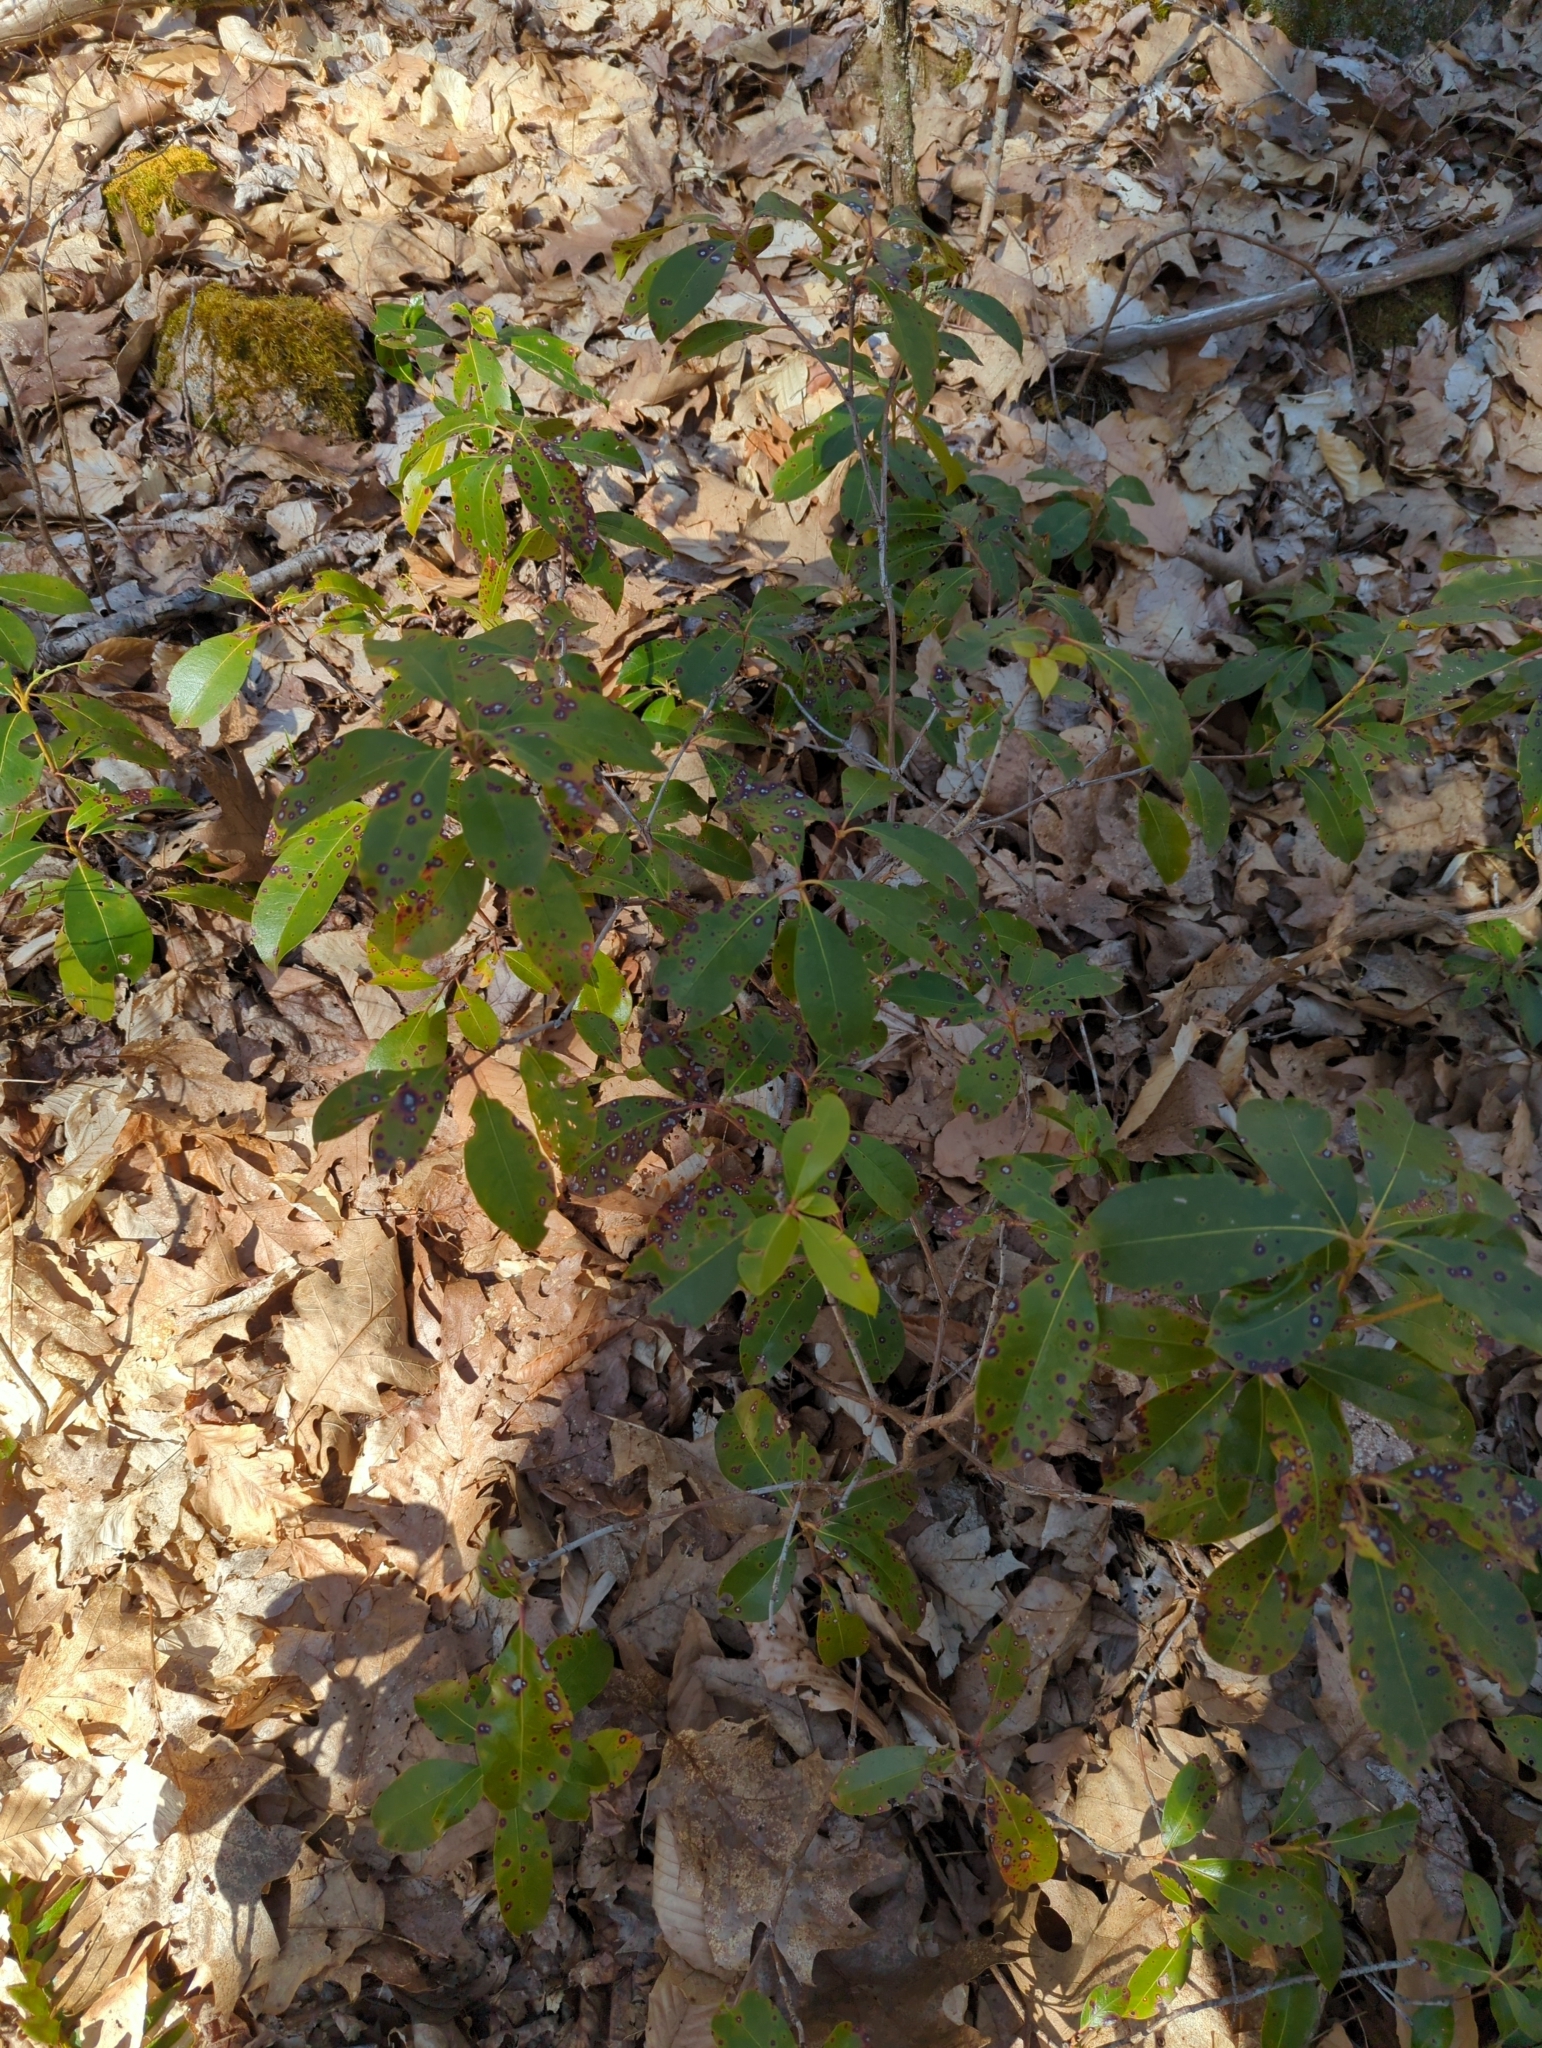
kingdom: Plantae
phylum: Tracheophyta
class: Magnoliopsida
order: Ericales
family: Ericaceae
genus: Kalmia
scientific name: Kalmia latifolia
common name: Mountain-laurel
